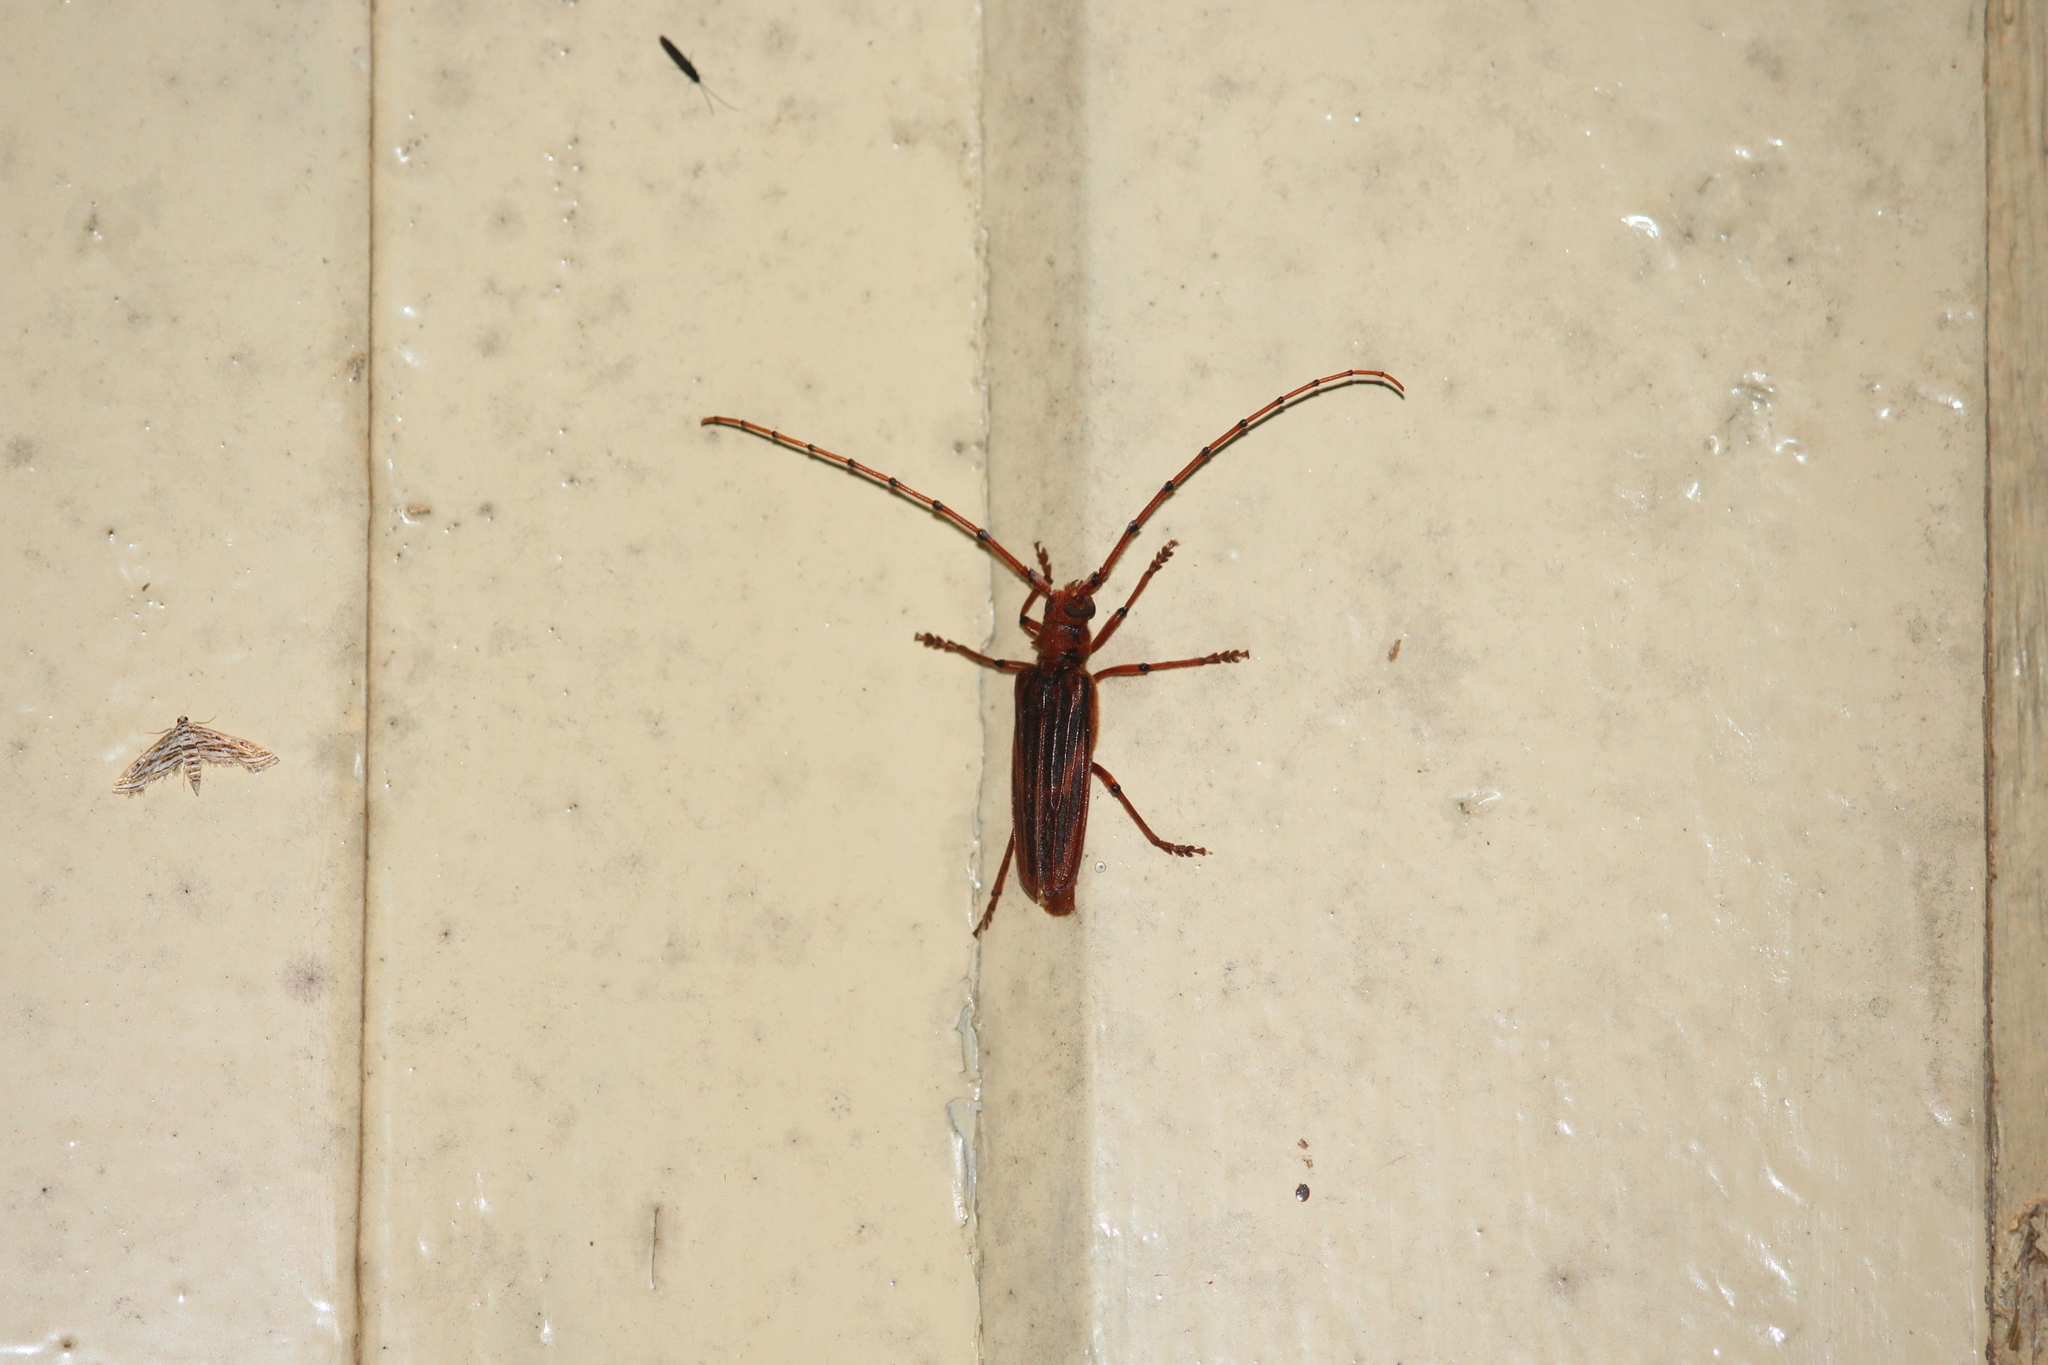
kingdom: Animalia
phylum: Arthropoda
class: Insecta
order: Coleoptera
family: Cerambycidae
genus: Oplatocera
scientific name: Oplatocera halli
